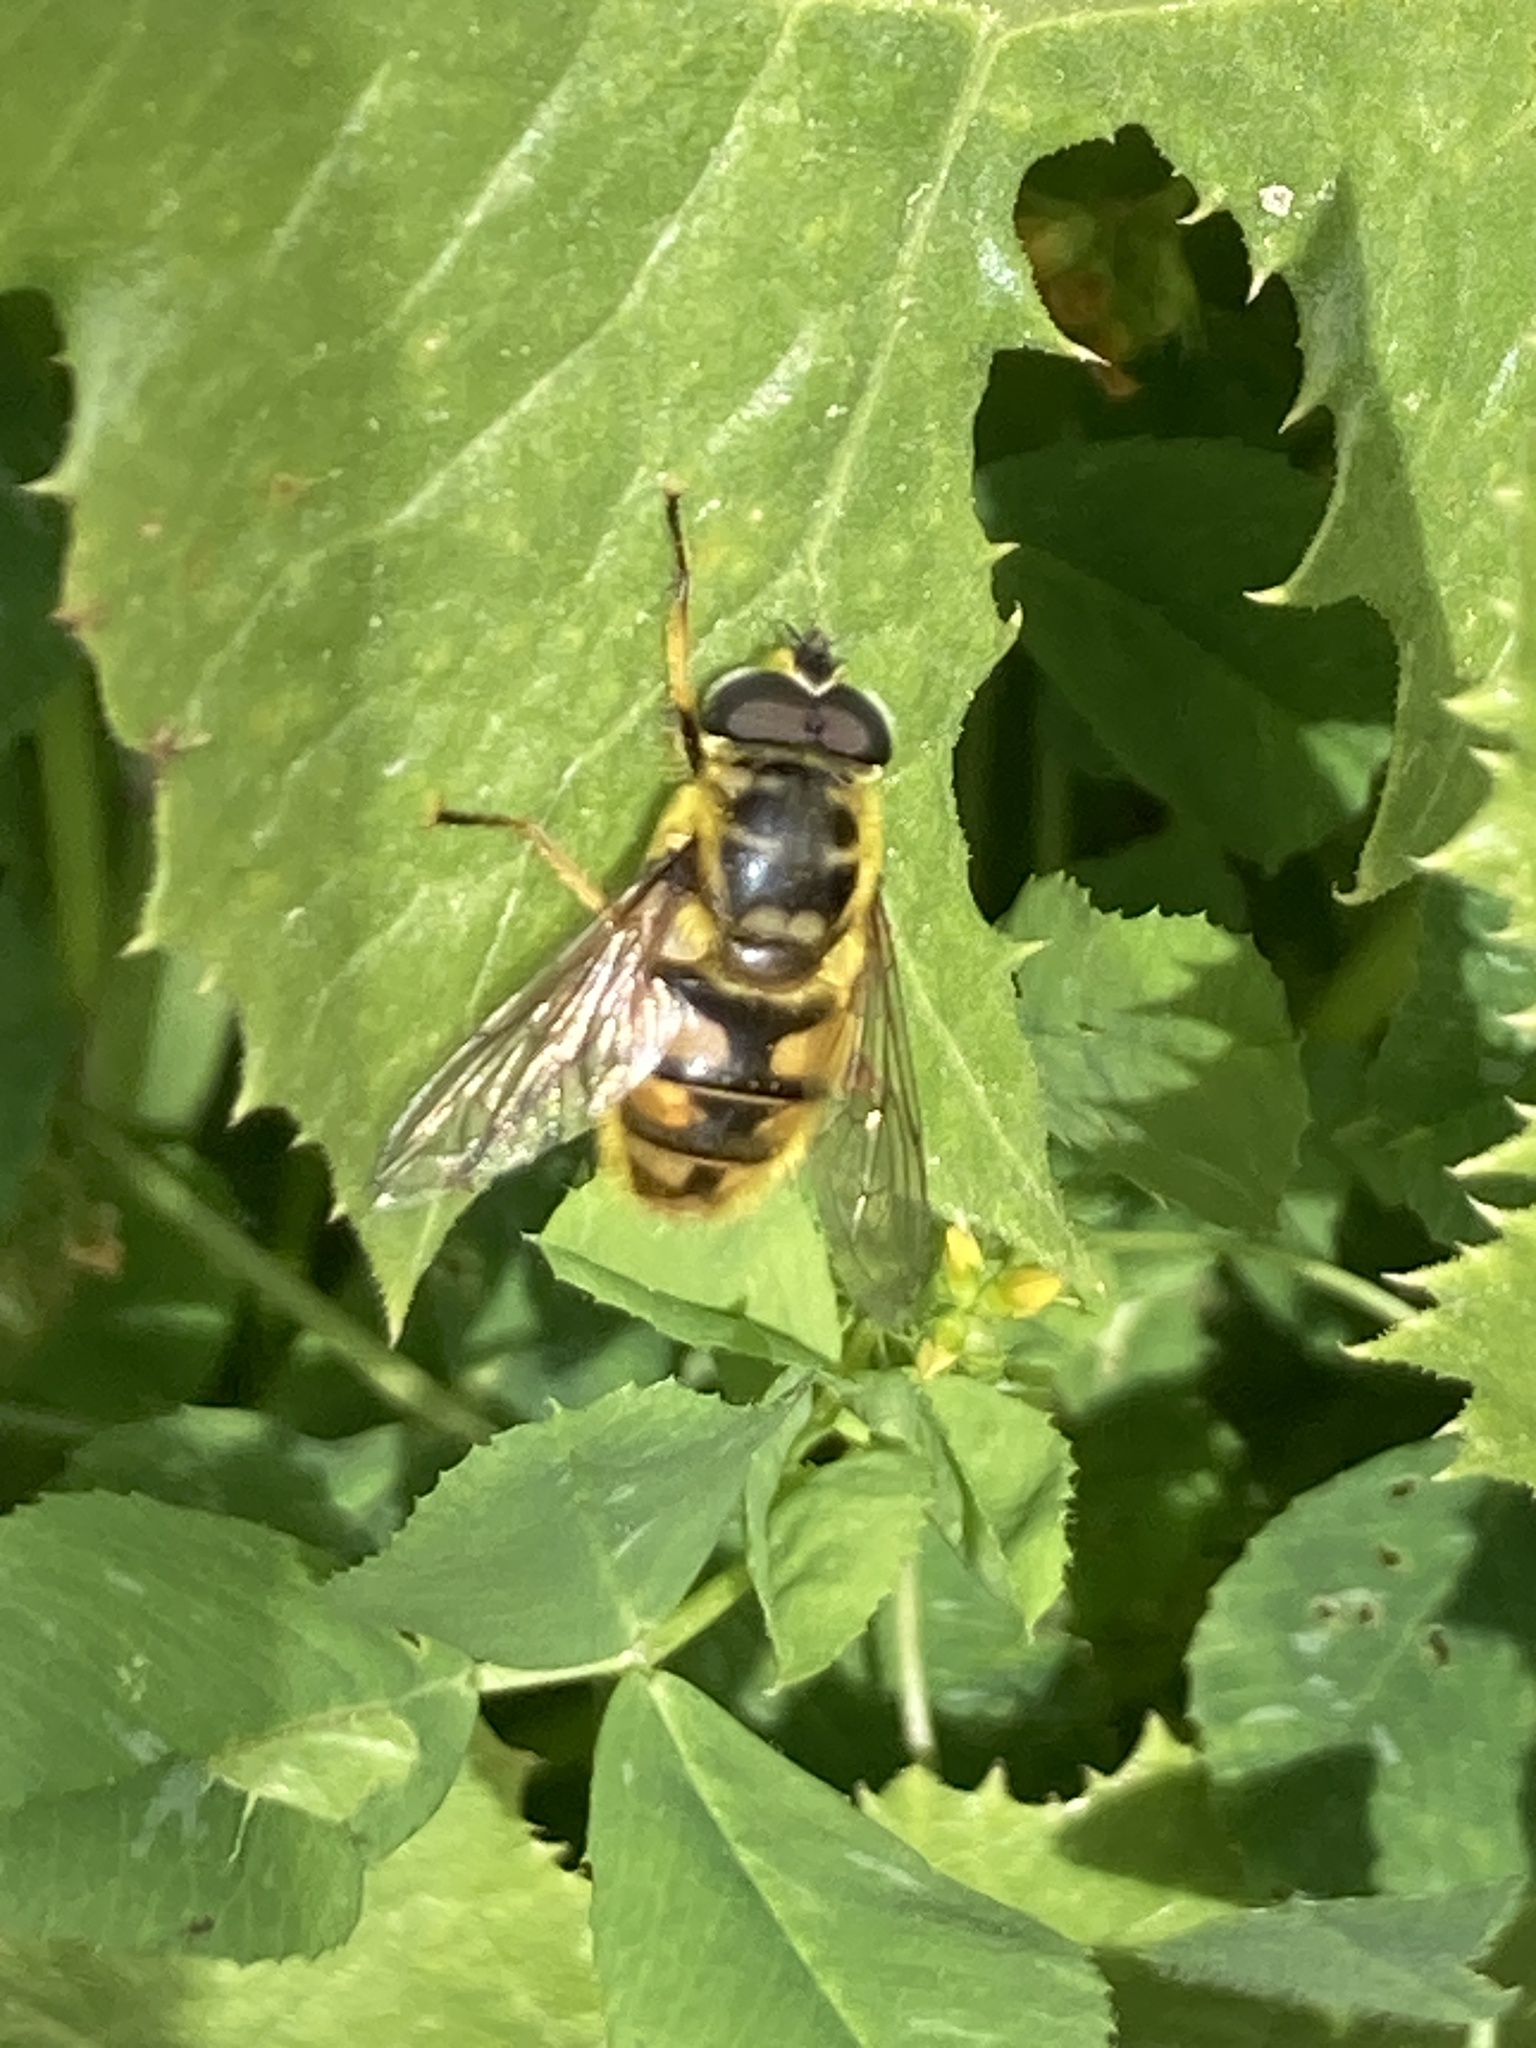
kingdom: Animalia
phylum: Arthropoda
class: Insecta
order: Diptera
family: Syrphidae
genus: Myathropa
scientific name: Myathropa florea
